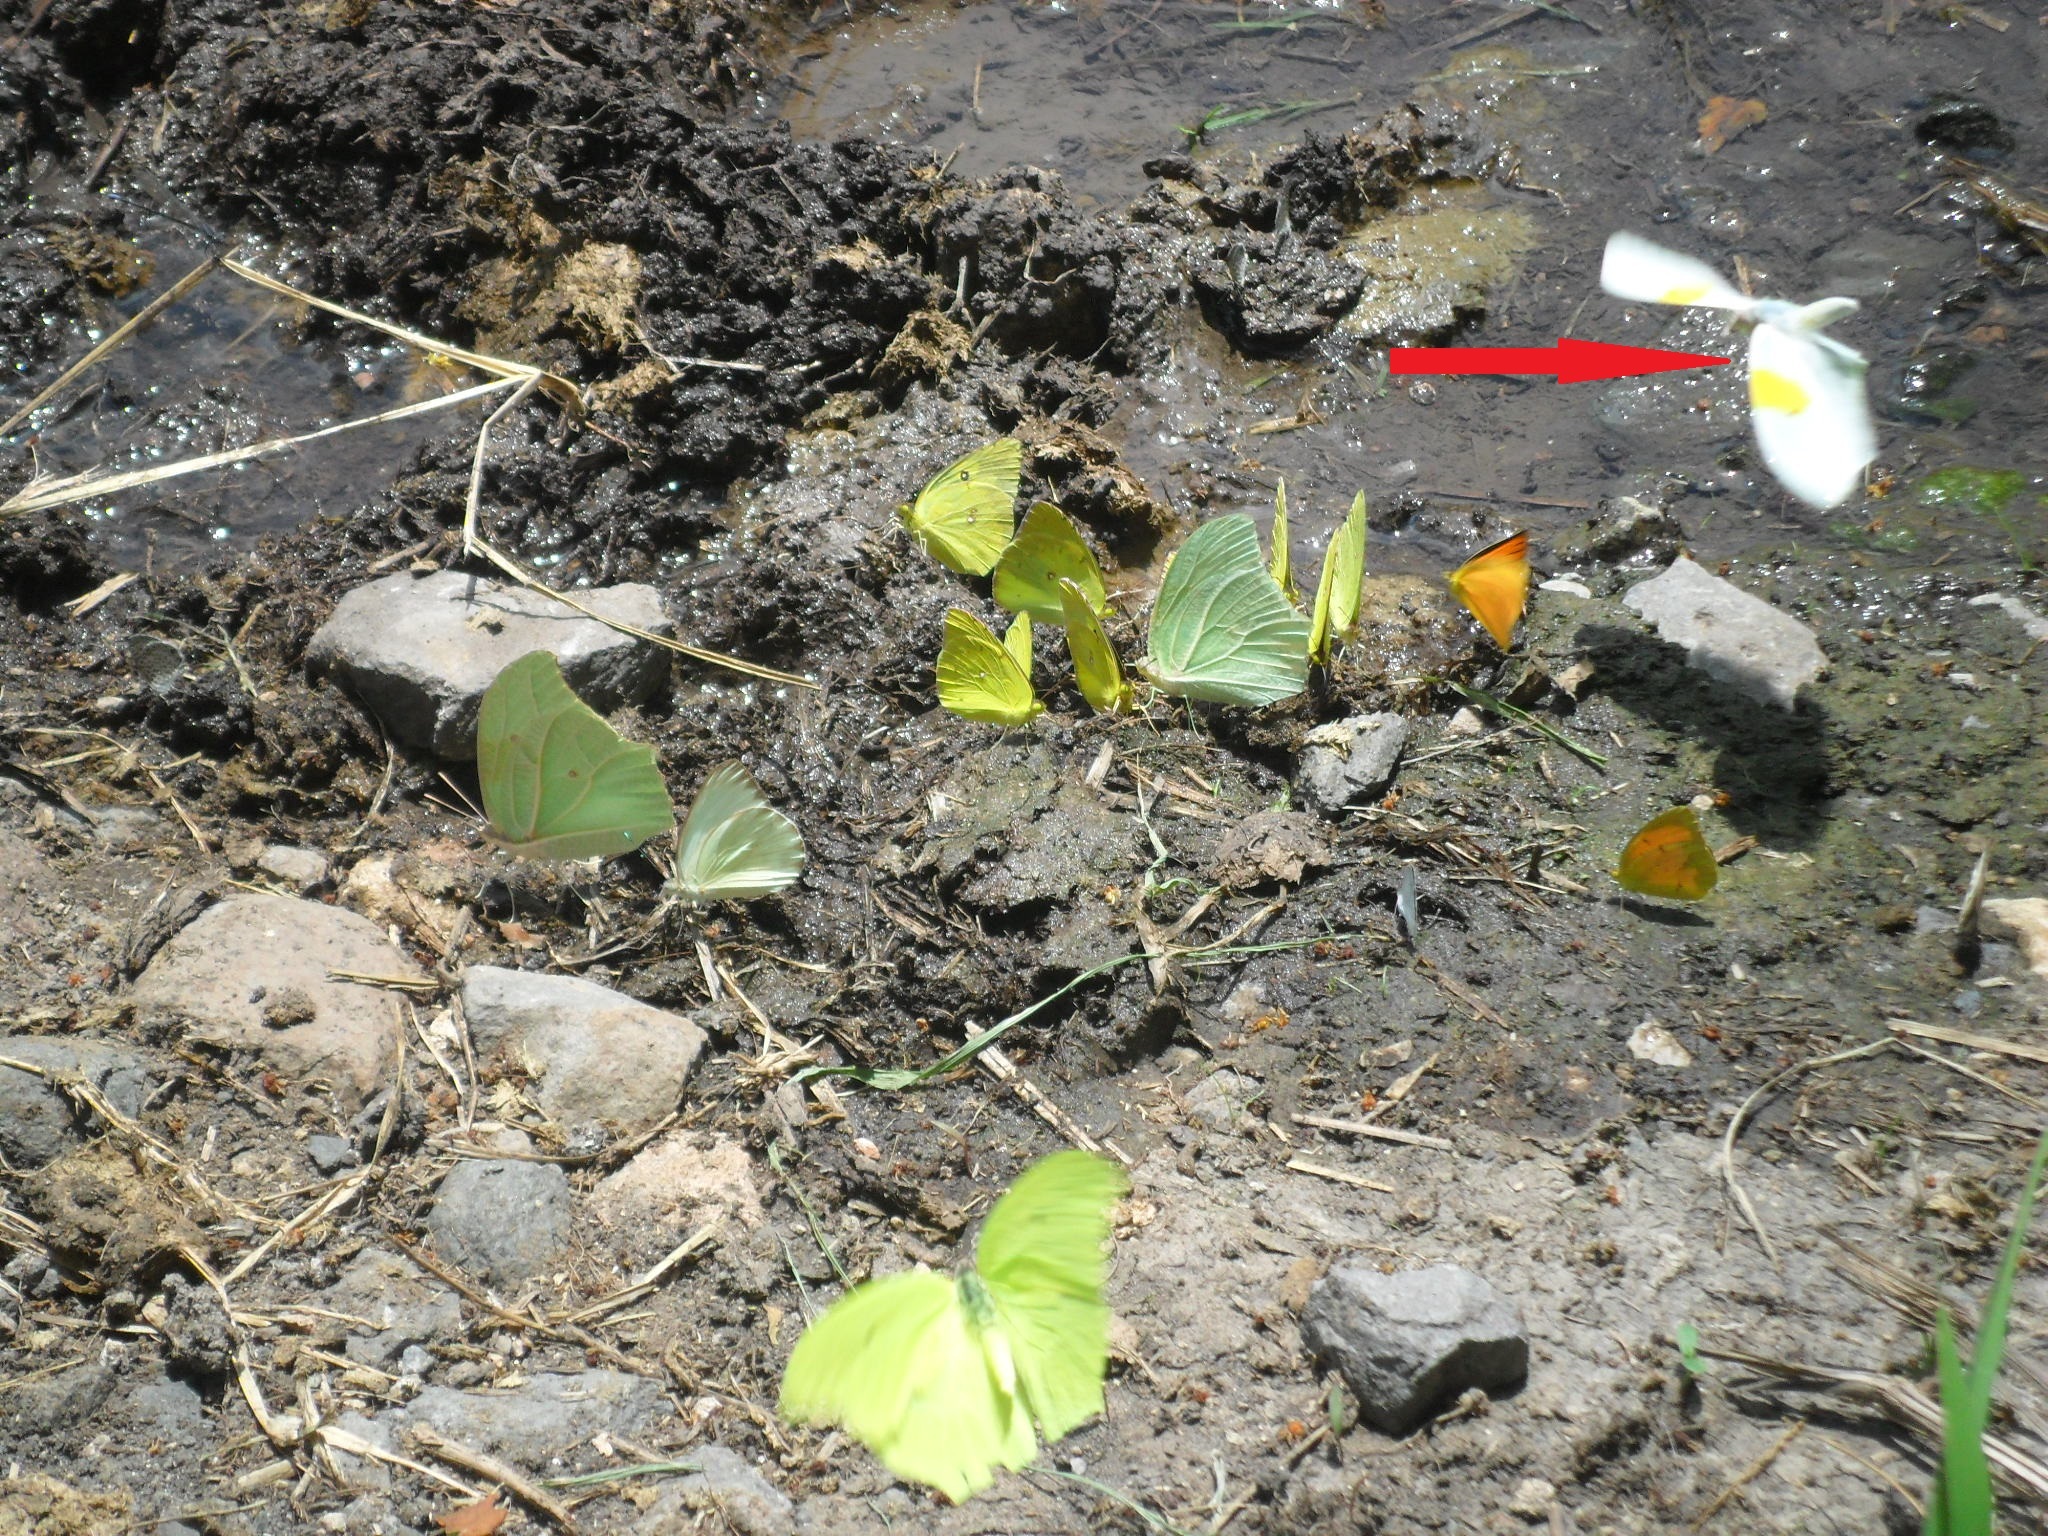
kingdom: Animalia
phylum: Arthropoda
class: Insecta
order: Lepidoptera
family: Pieridae
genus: Anteos
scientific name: Anteos clorinde
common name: White angled sulphur
